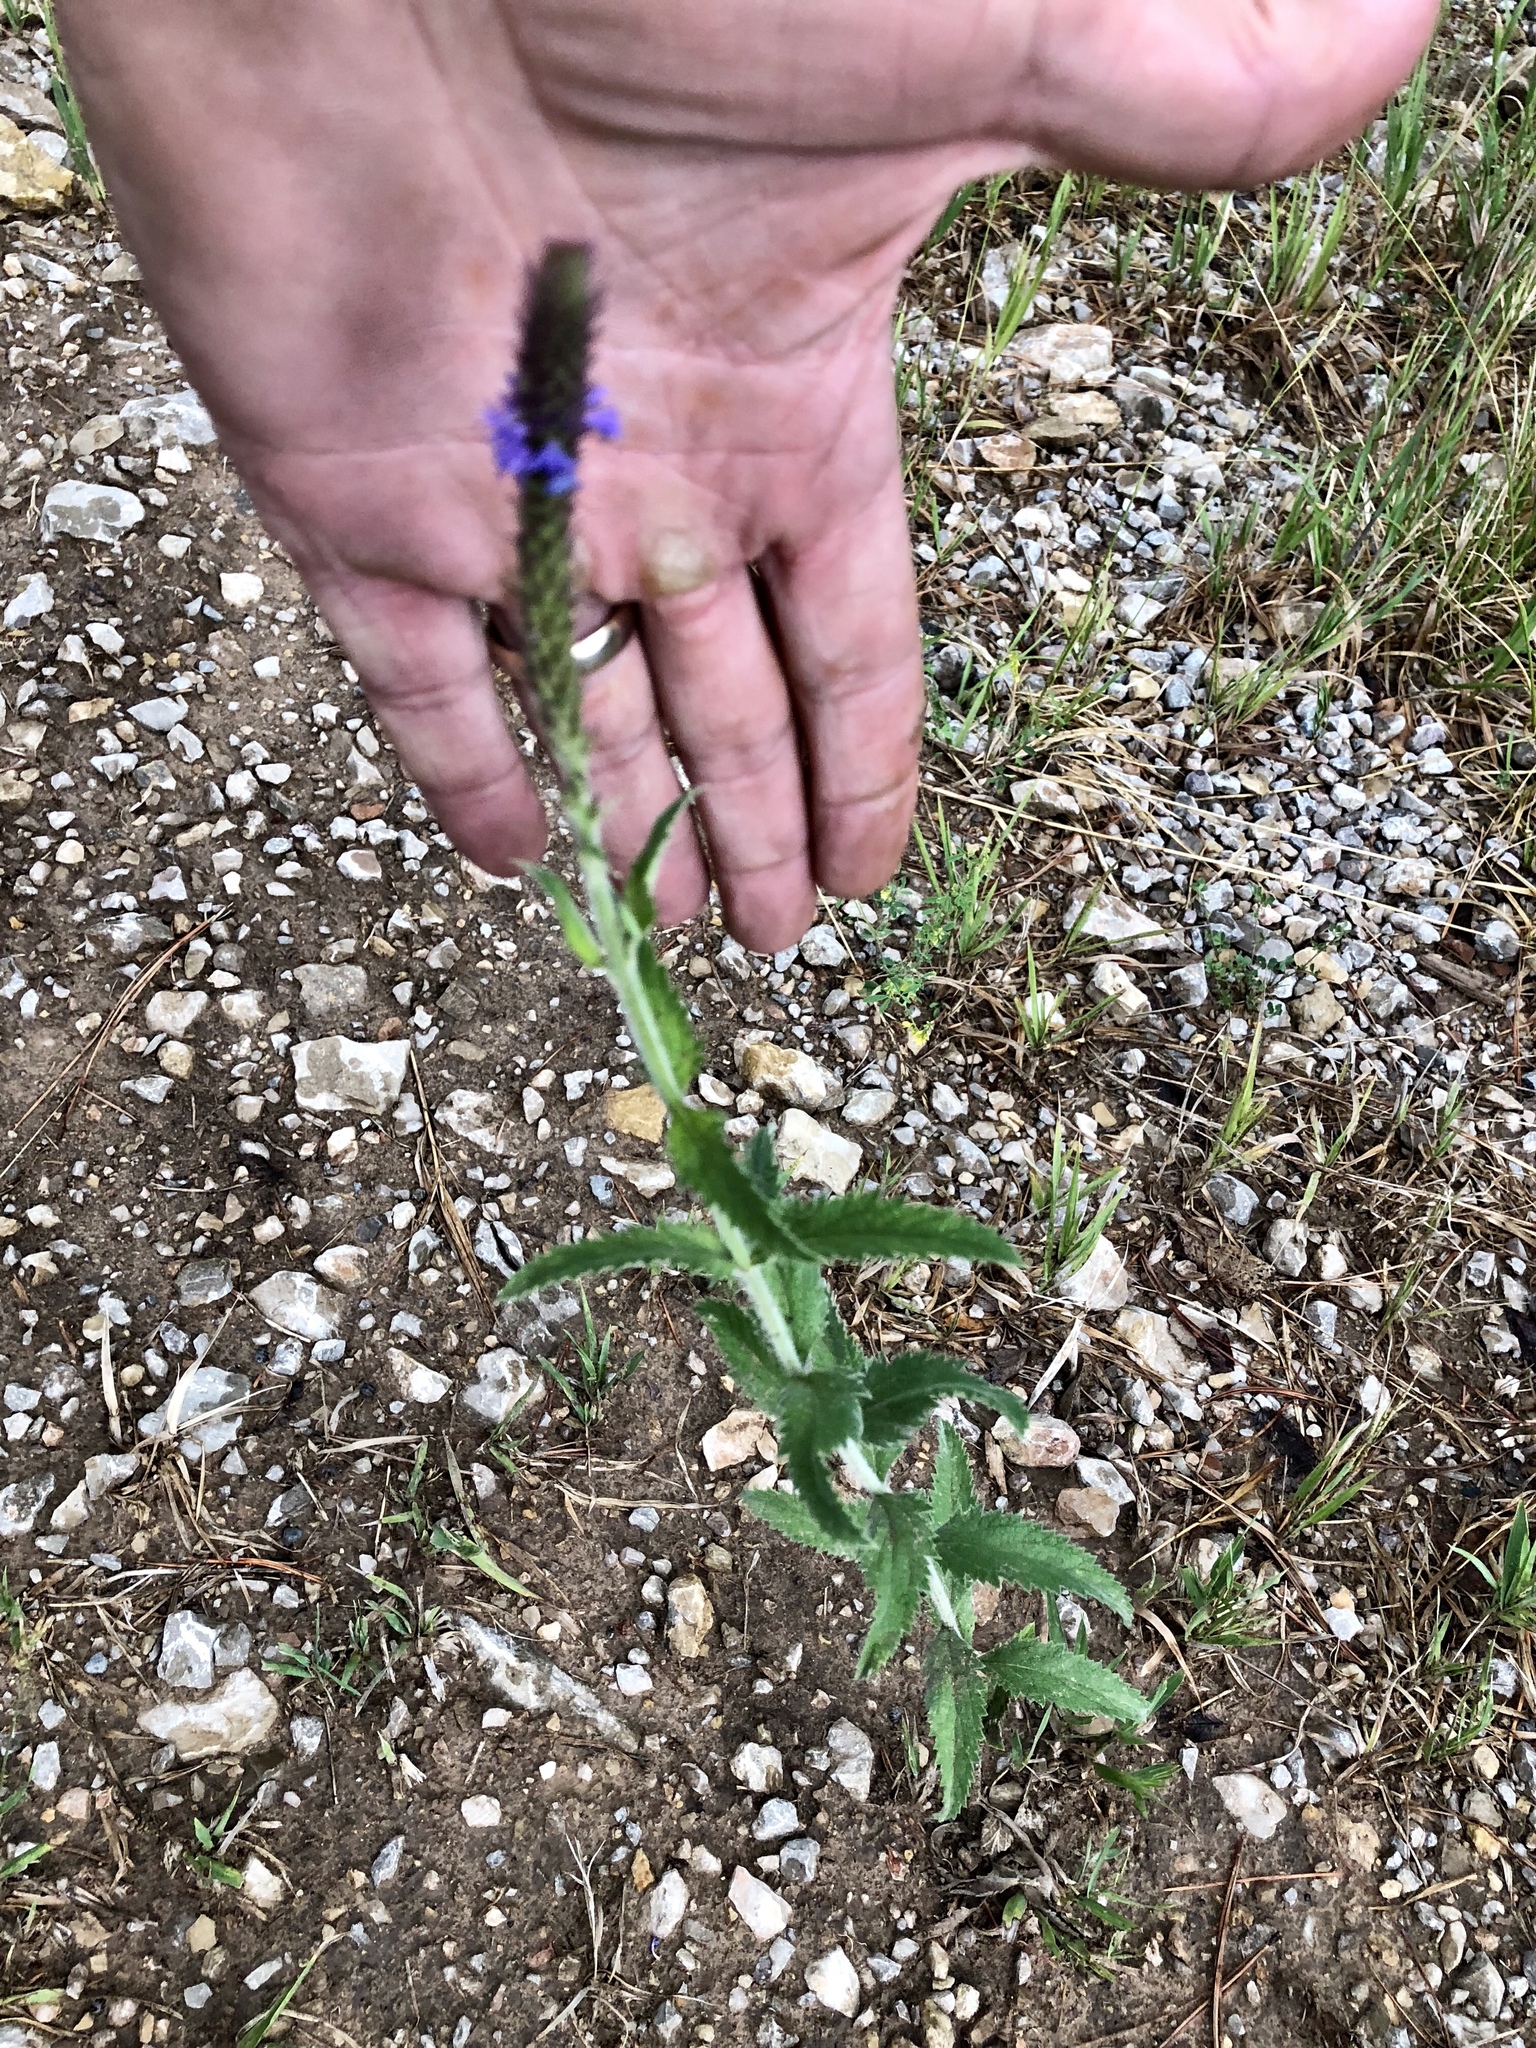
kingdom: Plantae
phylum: Tracheophyta
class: Magnoliopsida
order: Lamiales
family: Verbenaceae
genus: Verbena
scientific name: Verbena macdougalii
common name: New mexico vervain
